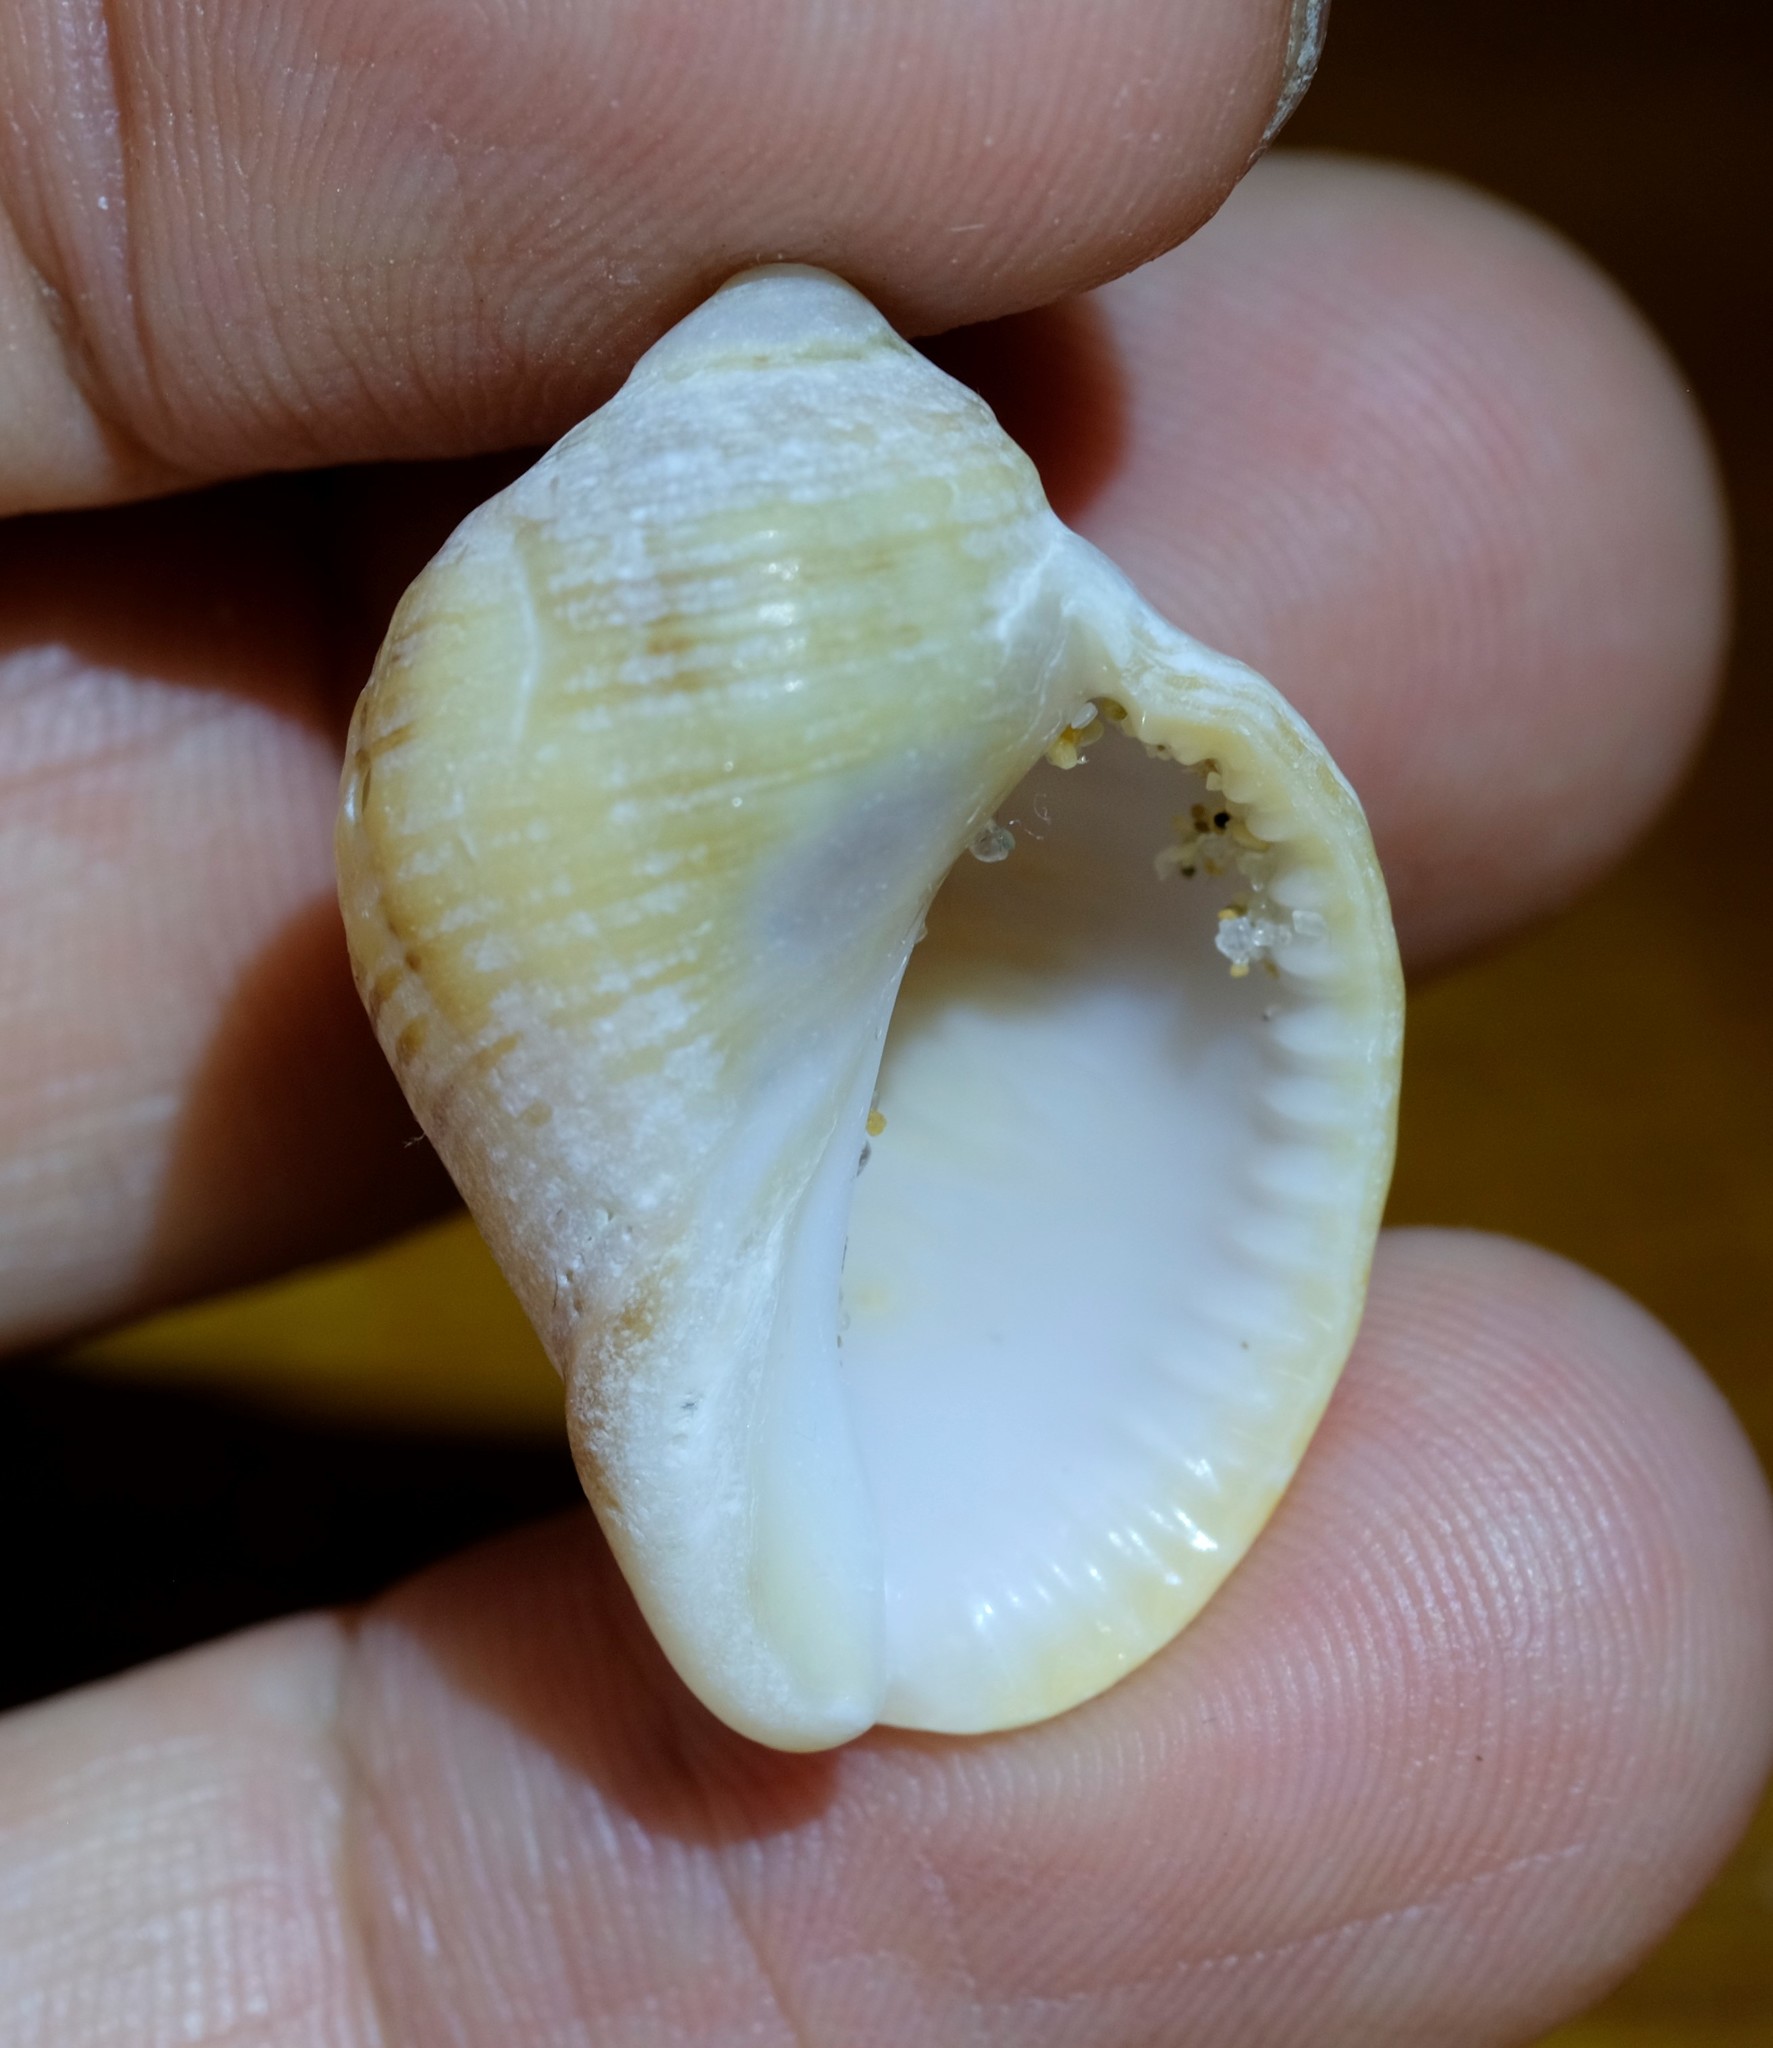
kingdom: Animalia
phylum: Mollusca
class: Gastropoda
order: Neogastropoda
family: Muricidae
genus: Dicathais
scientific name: Dicathais orbita
